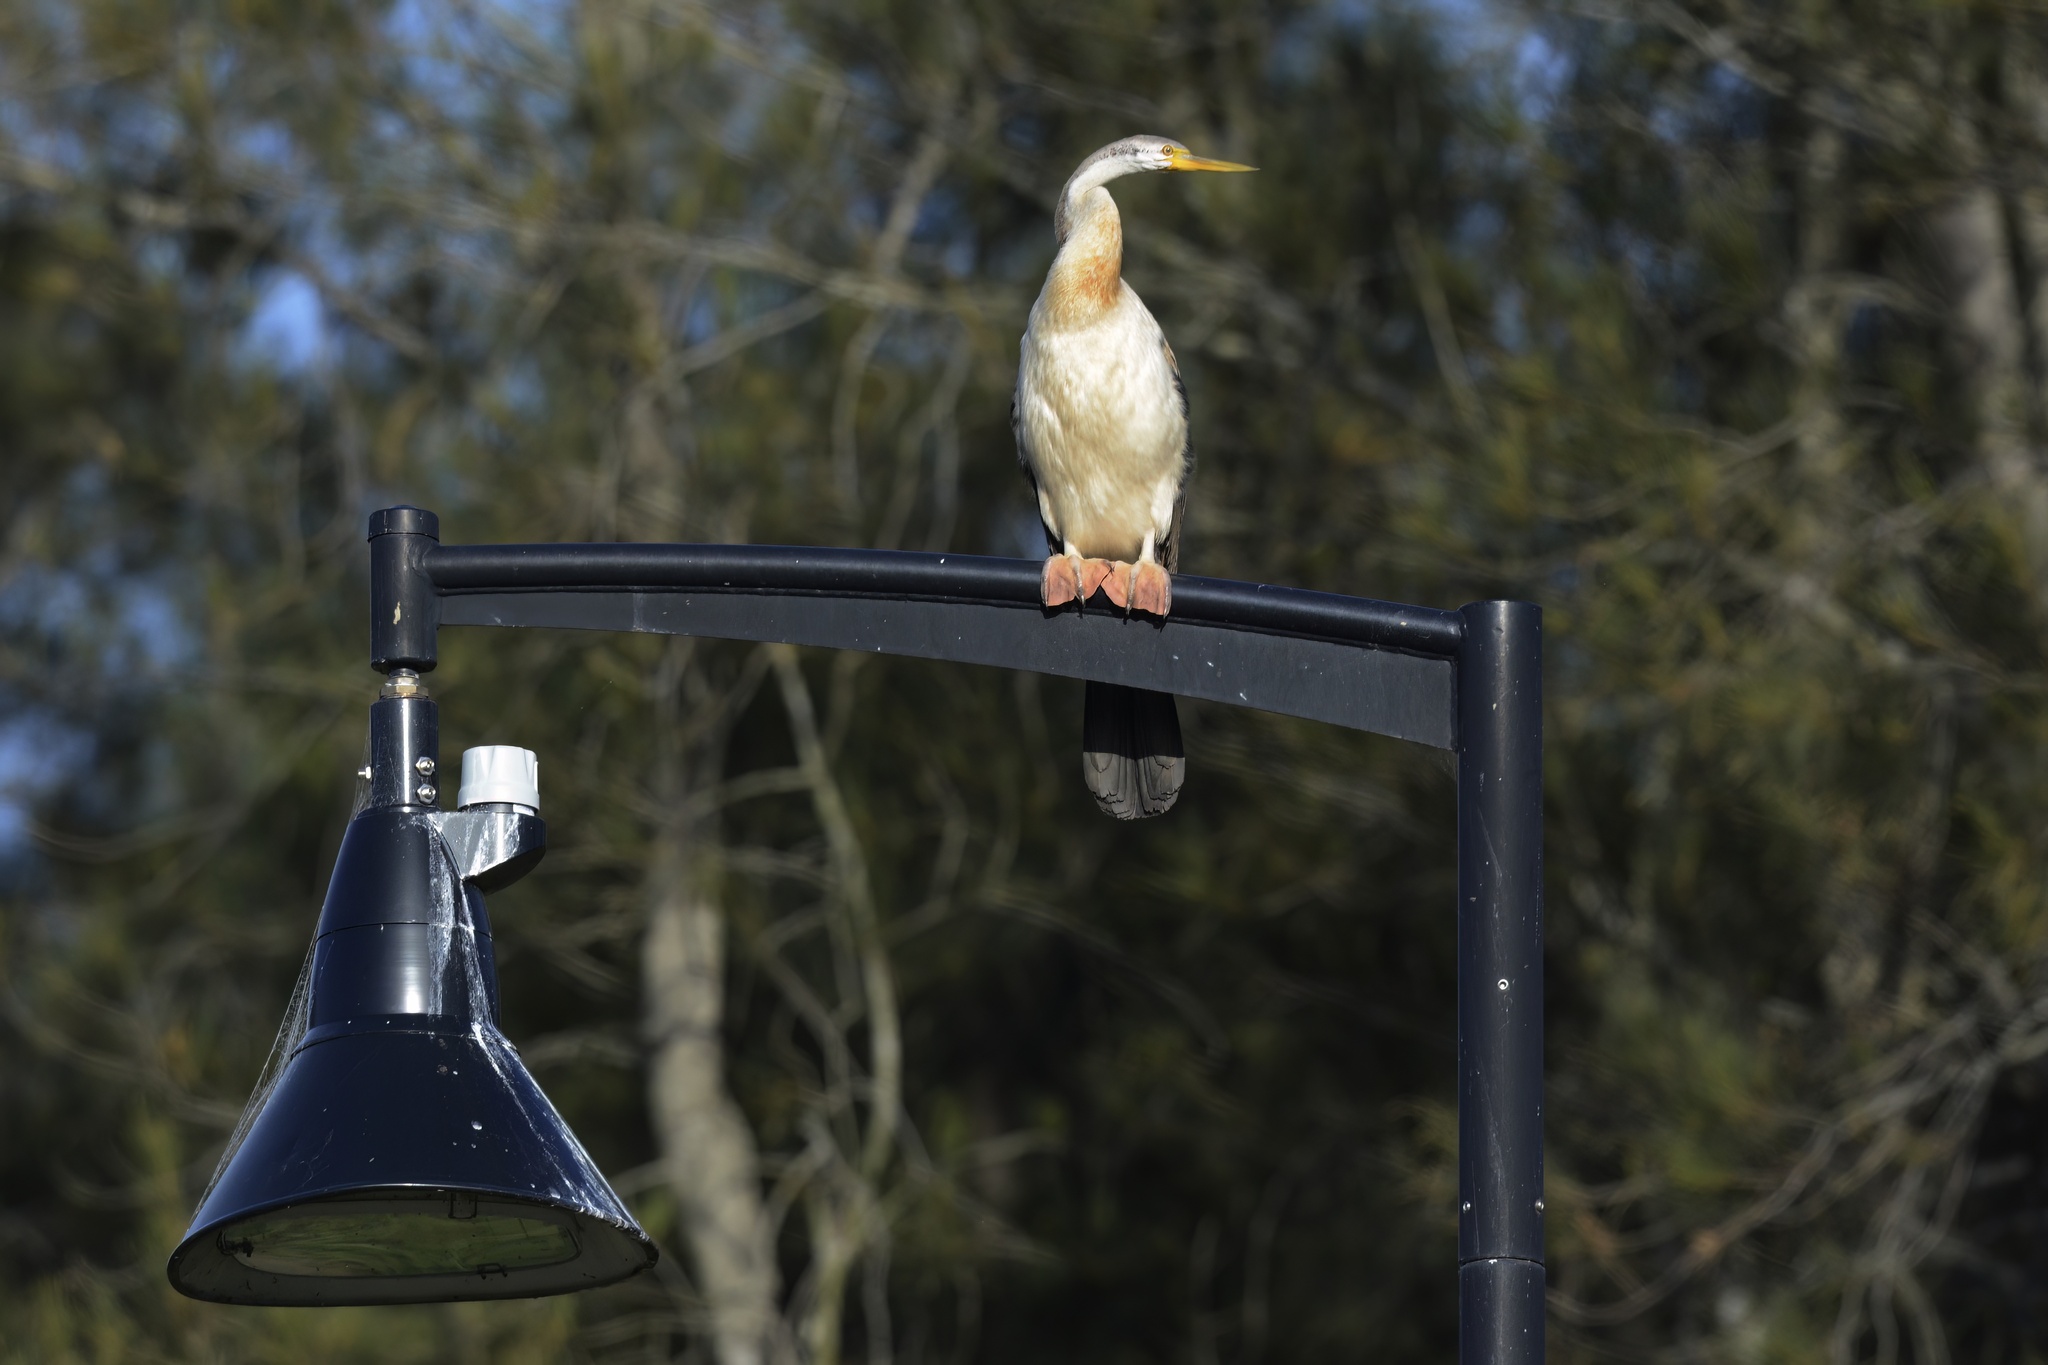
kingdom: Animalia
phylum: Chordata
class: Aves
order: Suliformes
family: Anhingidae
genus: Anhinga
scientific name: Anhinga novaehollandiae
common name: Australasian darter
